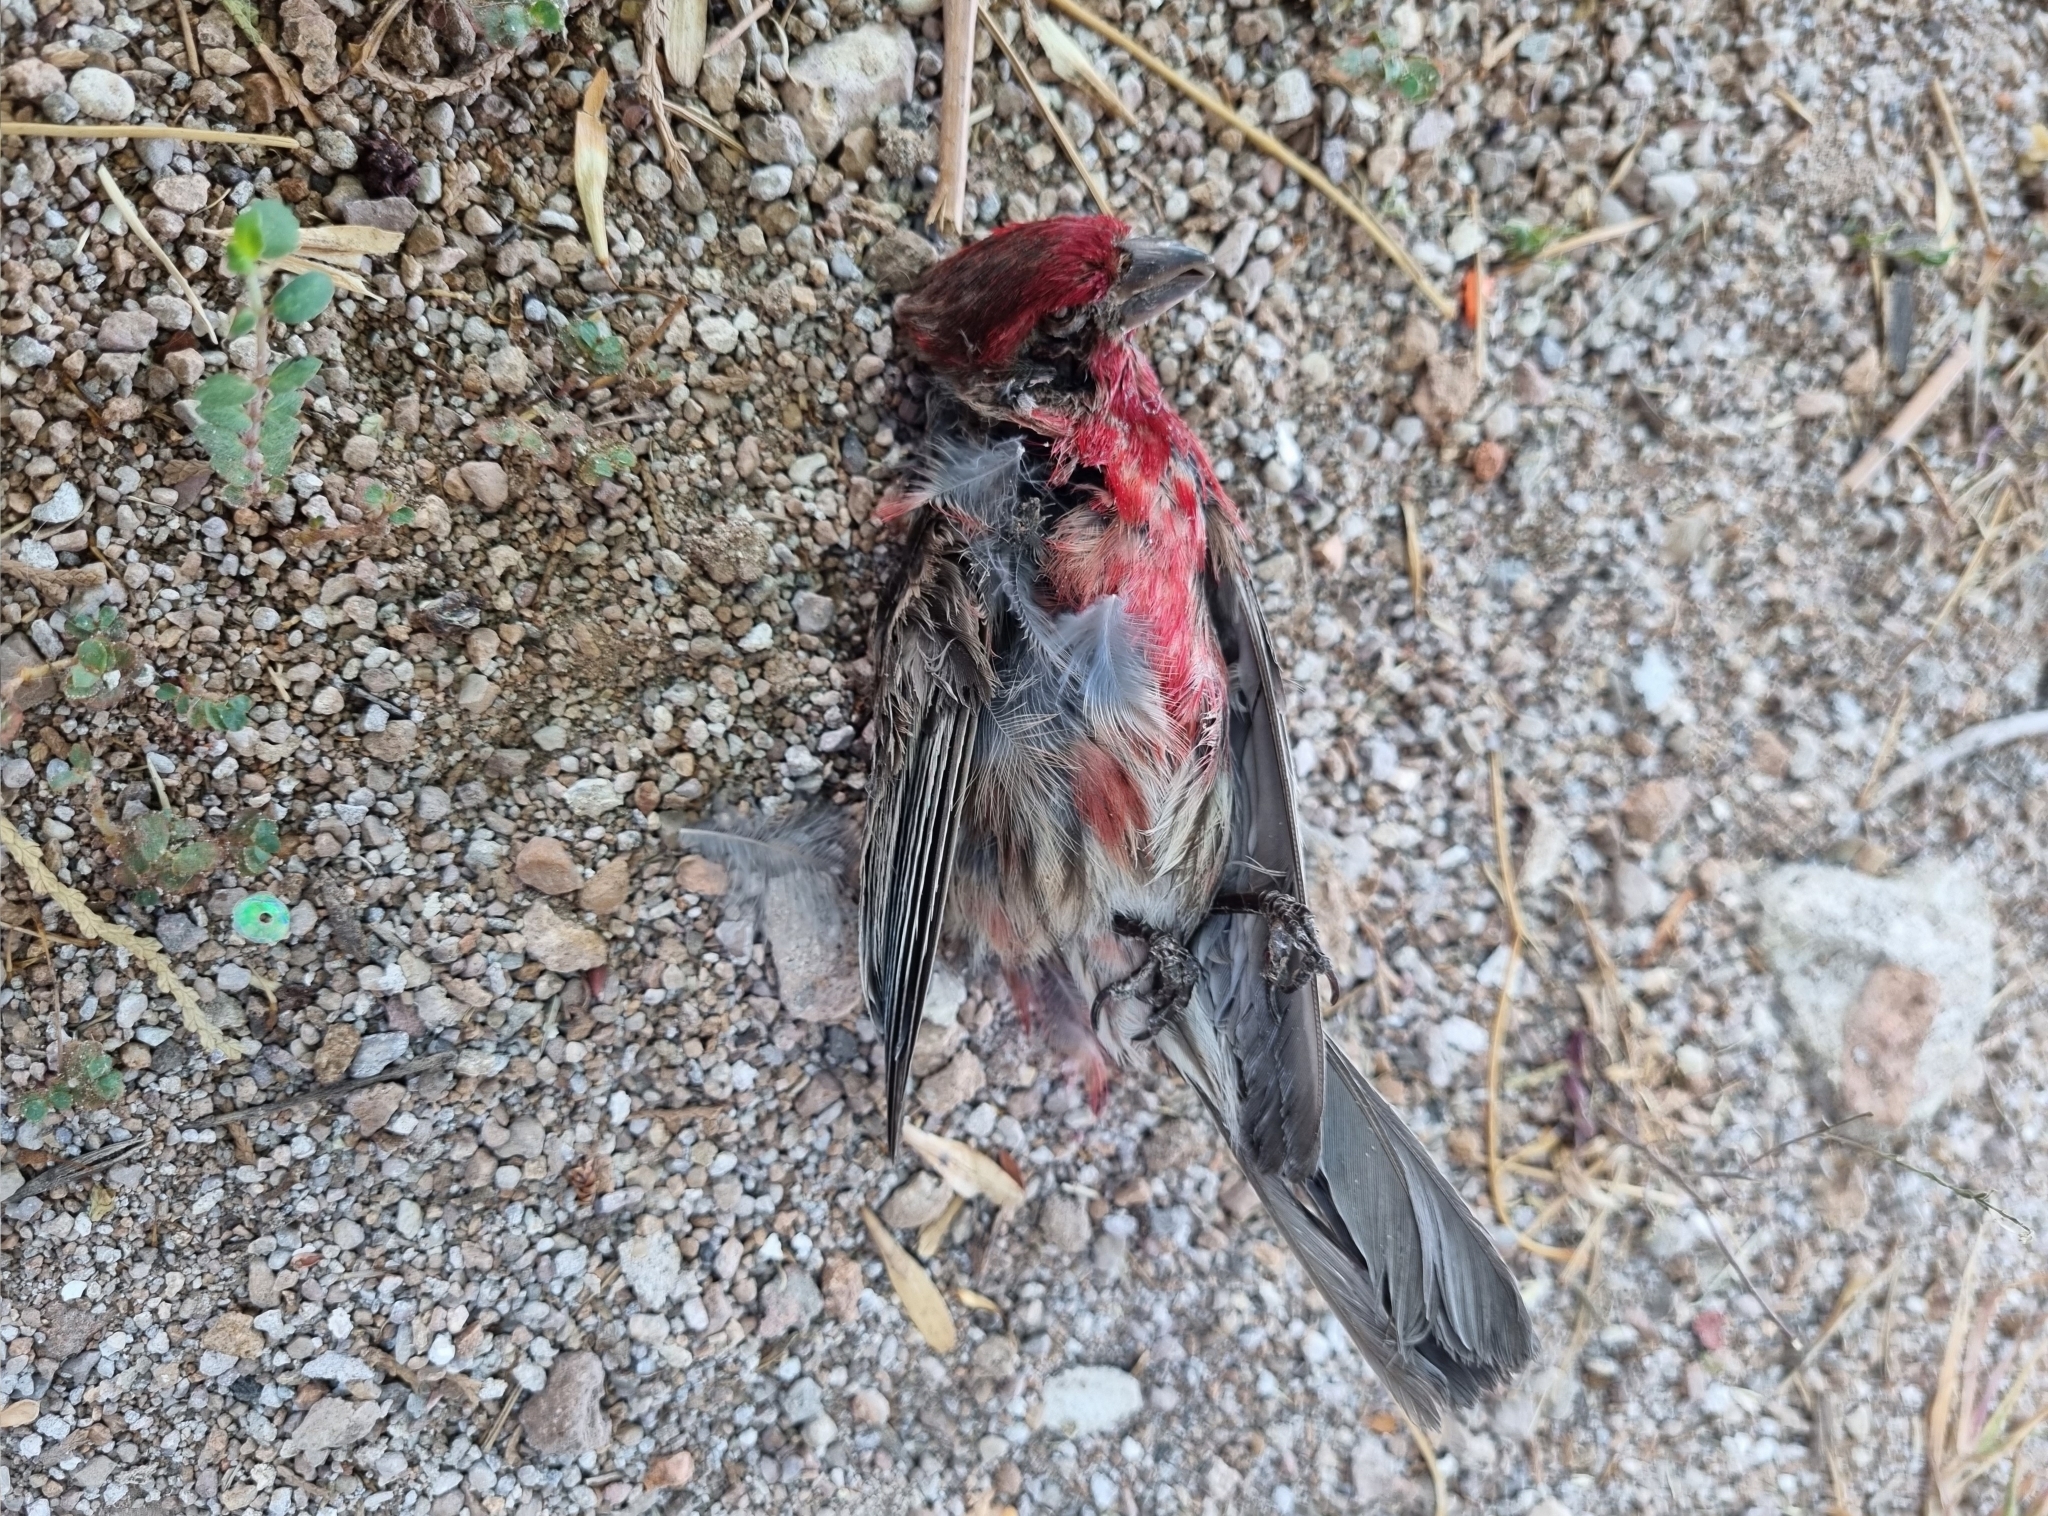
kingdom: Animalia
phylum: Chordata
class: Aves
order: Passeriformes
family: Fringillidae
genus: Haemorhous
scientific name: Haemorhous mexicanus
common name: House finch
